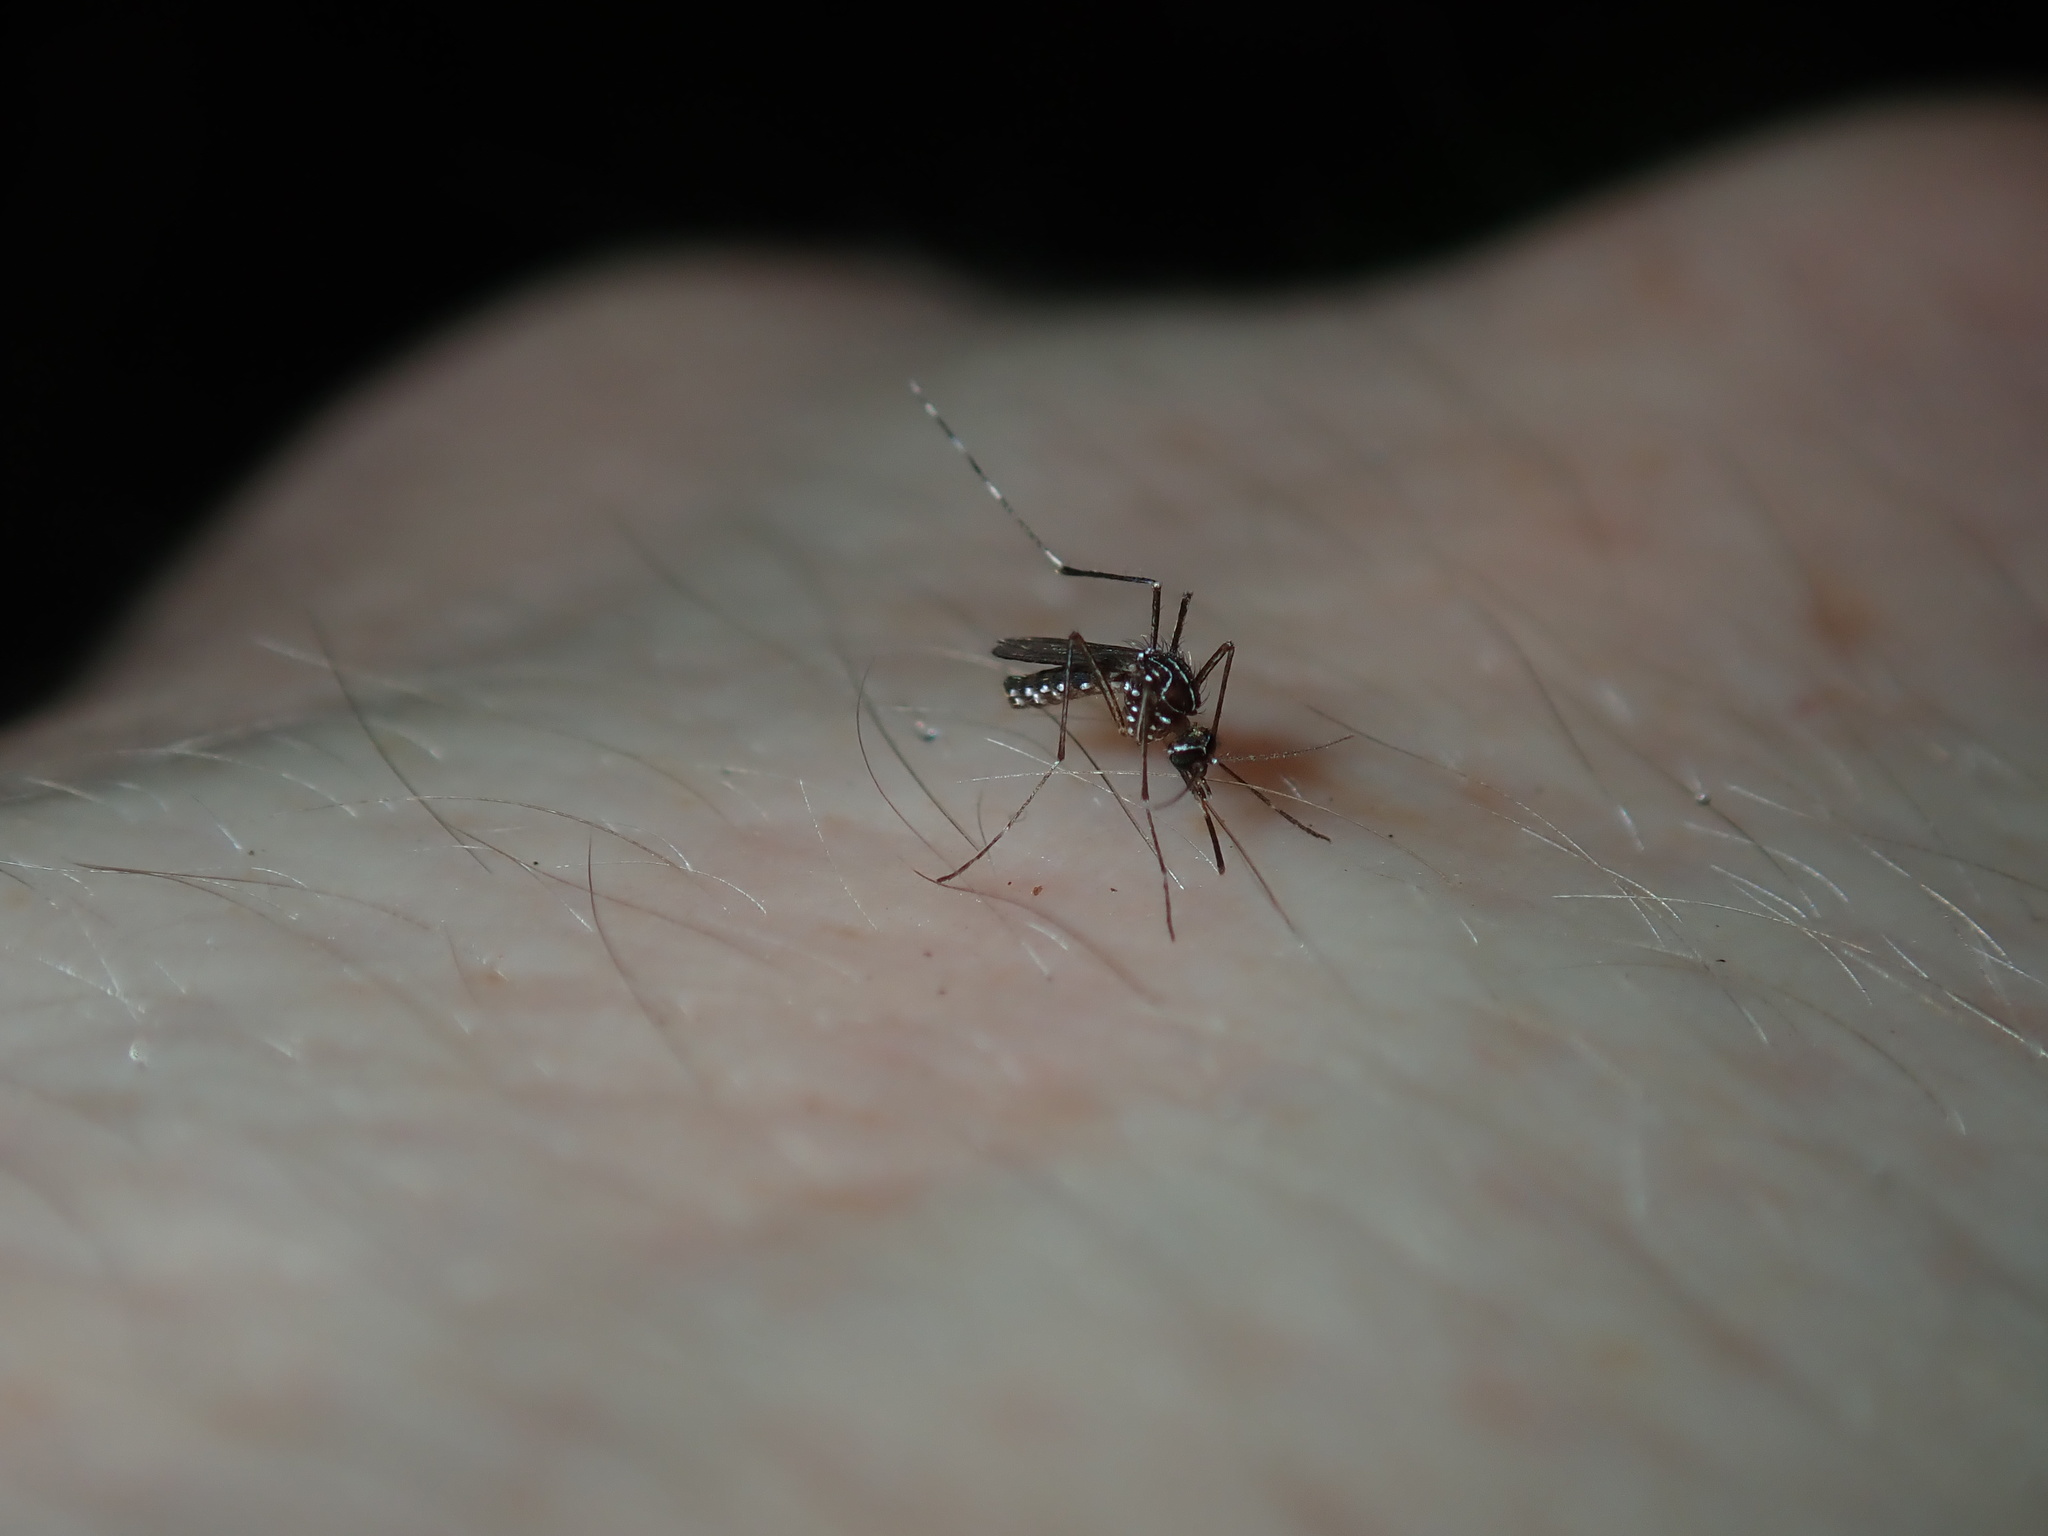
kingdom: Animalia
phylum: Arthropoda
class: Insecta
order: Diptera
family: Culicidae
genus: Aedes
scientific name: Aedes notoscriptus
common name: Australian backyard mosquito
